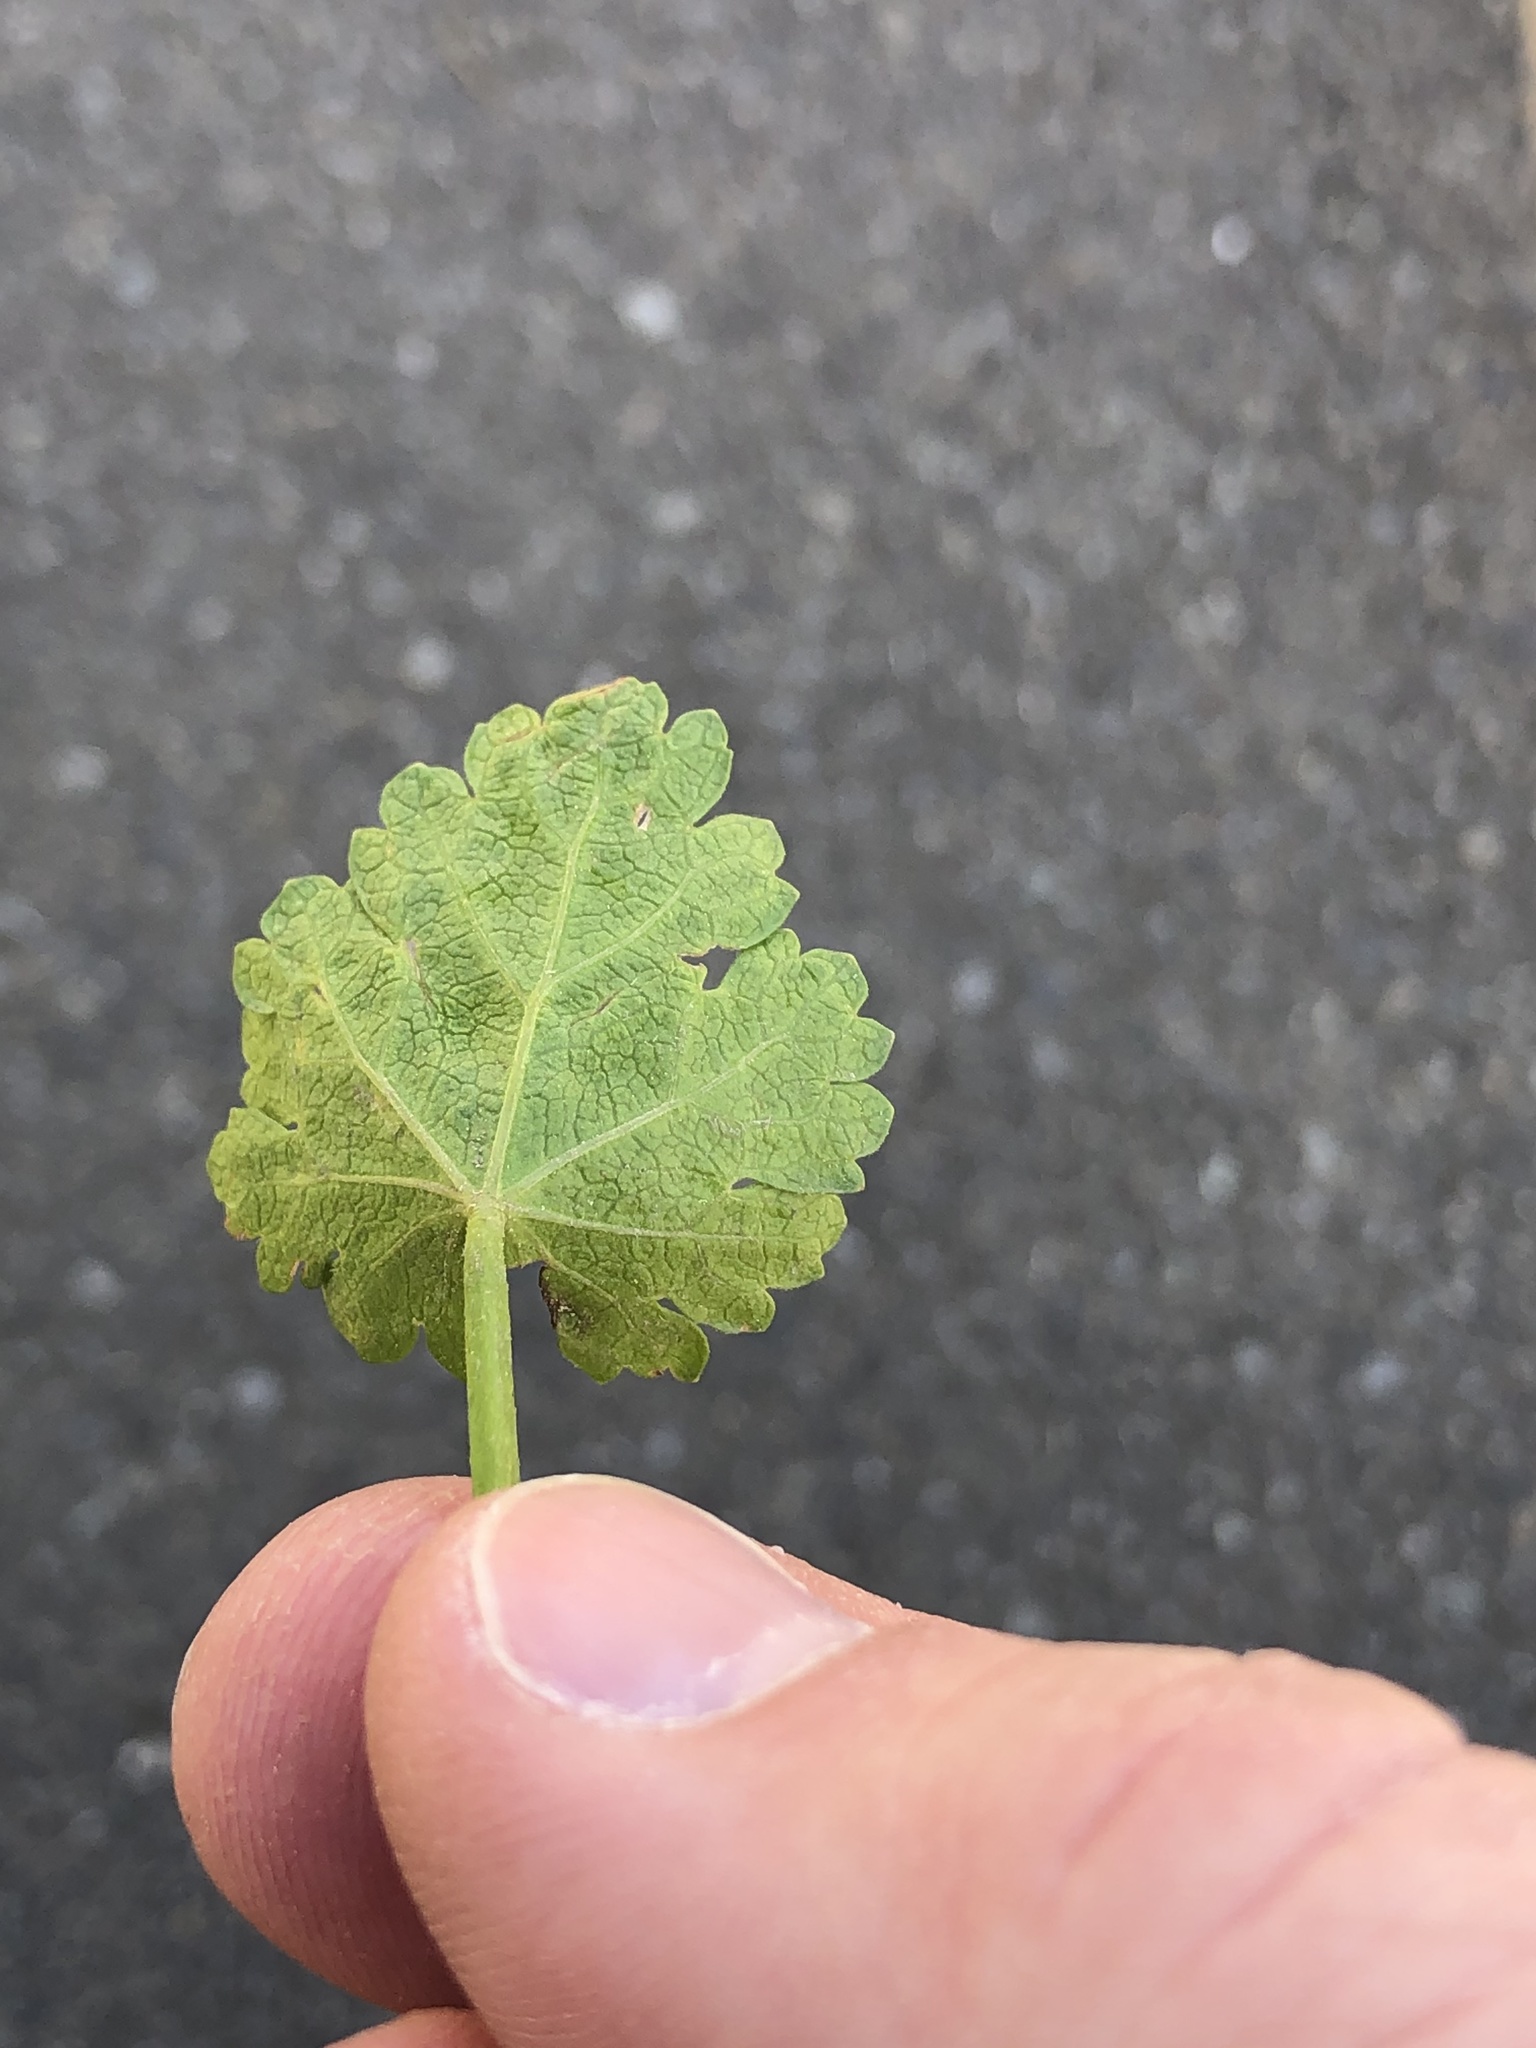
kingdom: Plantae
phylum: Tracheophyta
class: Magnoliopsida
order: Malvales
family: Malvaceae
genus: Modiola
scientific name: Modiola caroliniana
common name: Carolina bristlemallow
